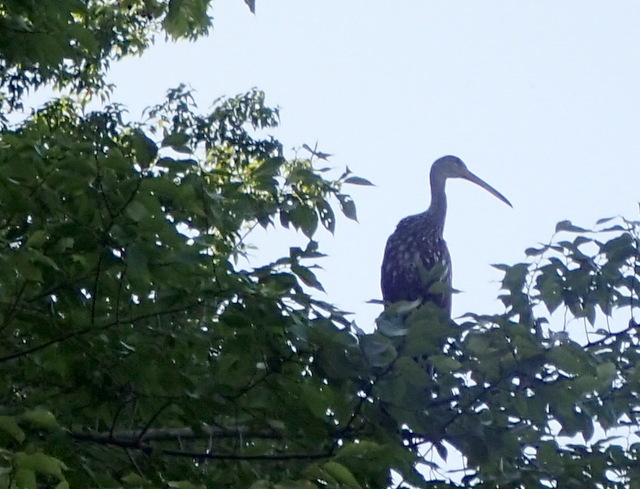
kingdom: Animalia
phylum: Chordata
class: Aves
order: Gruiformes
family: Aramidae
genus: Aramus
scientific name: Aramus guarauna
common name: Limpkin
